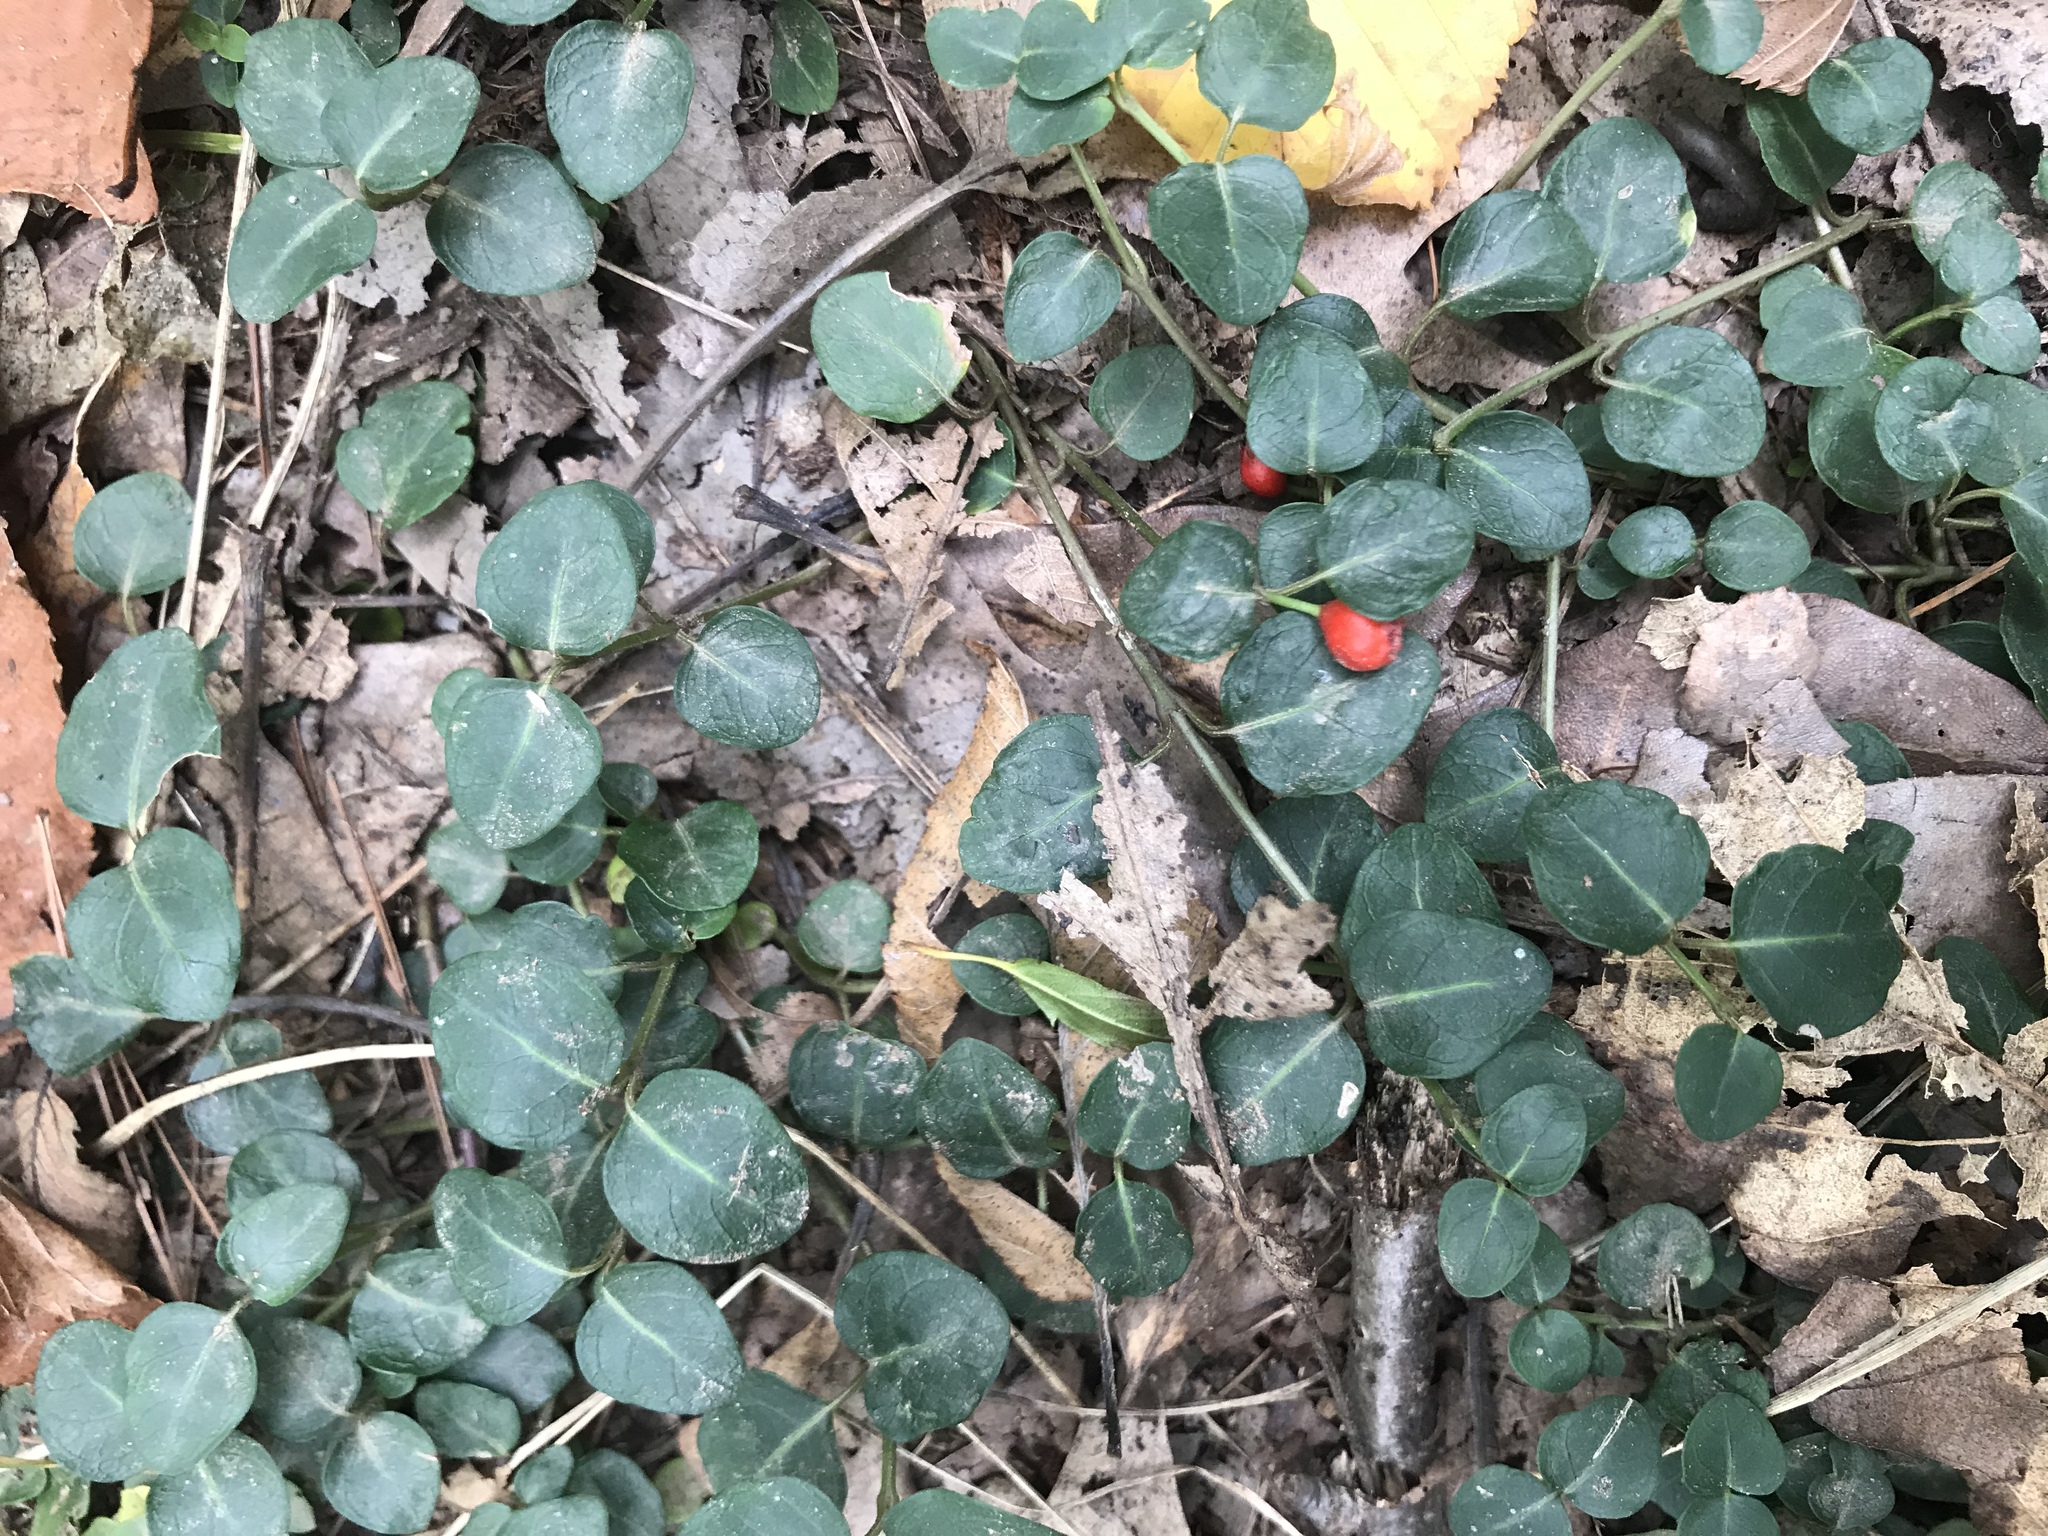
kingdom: Plantae
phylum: Tracheophyta
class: Magnoliopsida
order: Gentianales
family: Rubiaceae
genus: Mitchella
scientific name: Mitchella repens
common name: Partridge-berry
